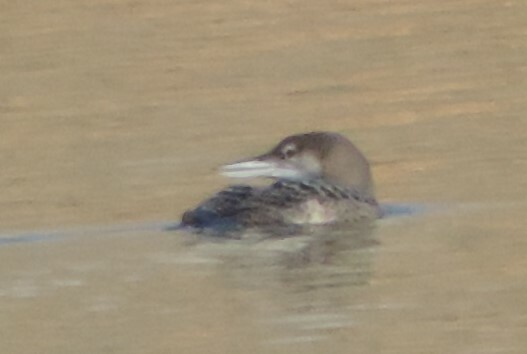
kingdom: Animalia
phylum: Chordata
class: Aves
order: Gaviiformes
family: Gaviidae
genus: Gavia
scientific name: Gavia immer
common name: Common loon
